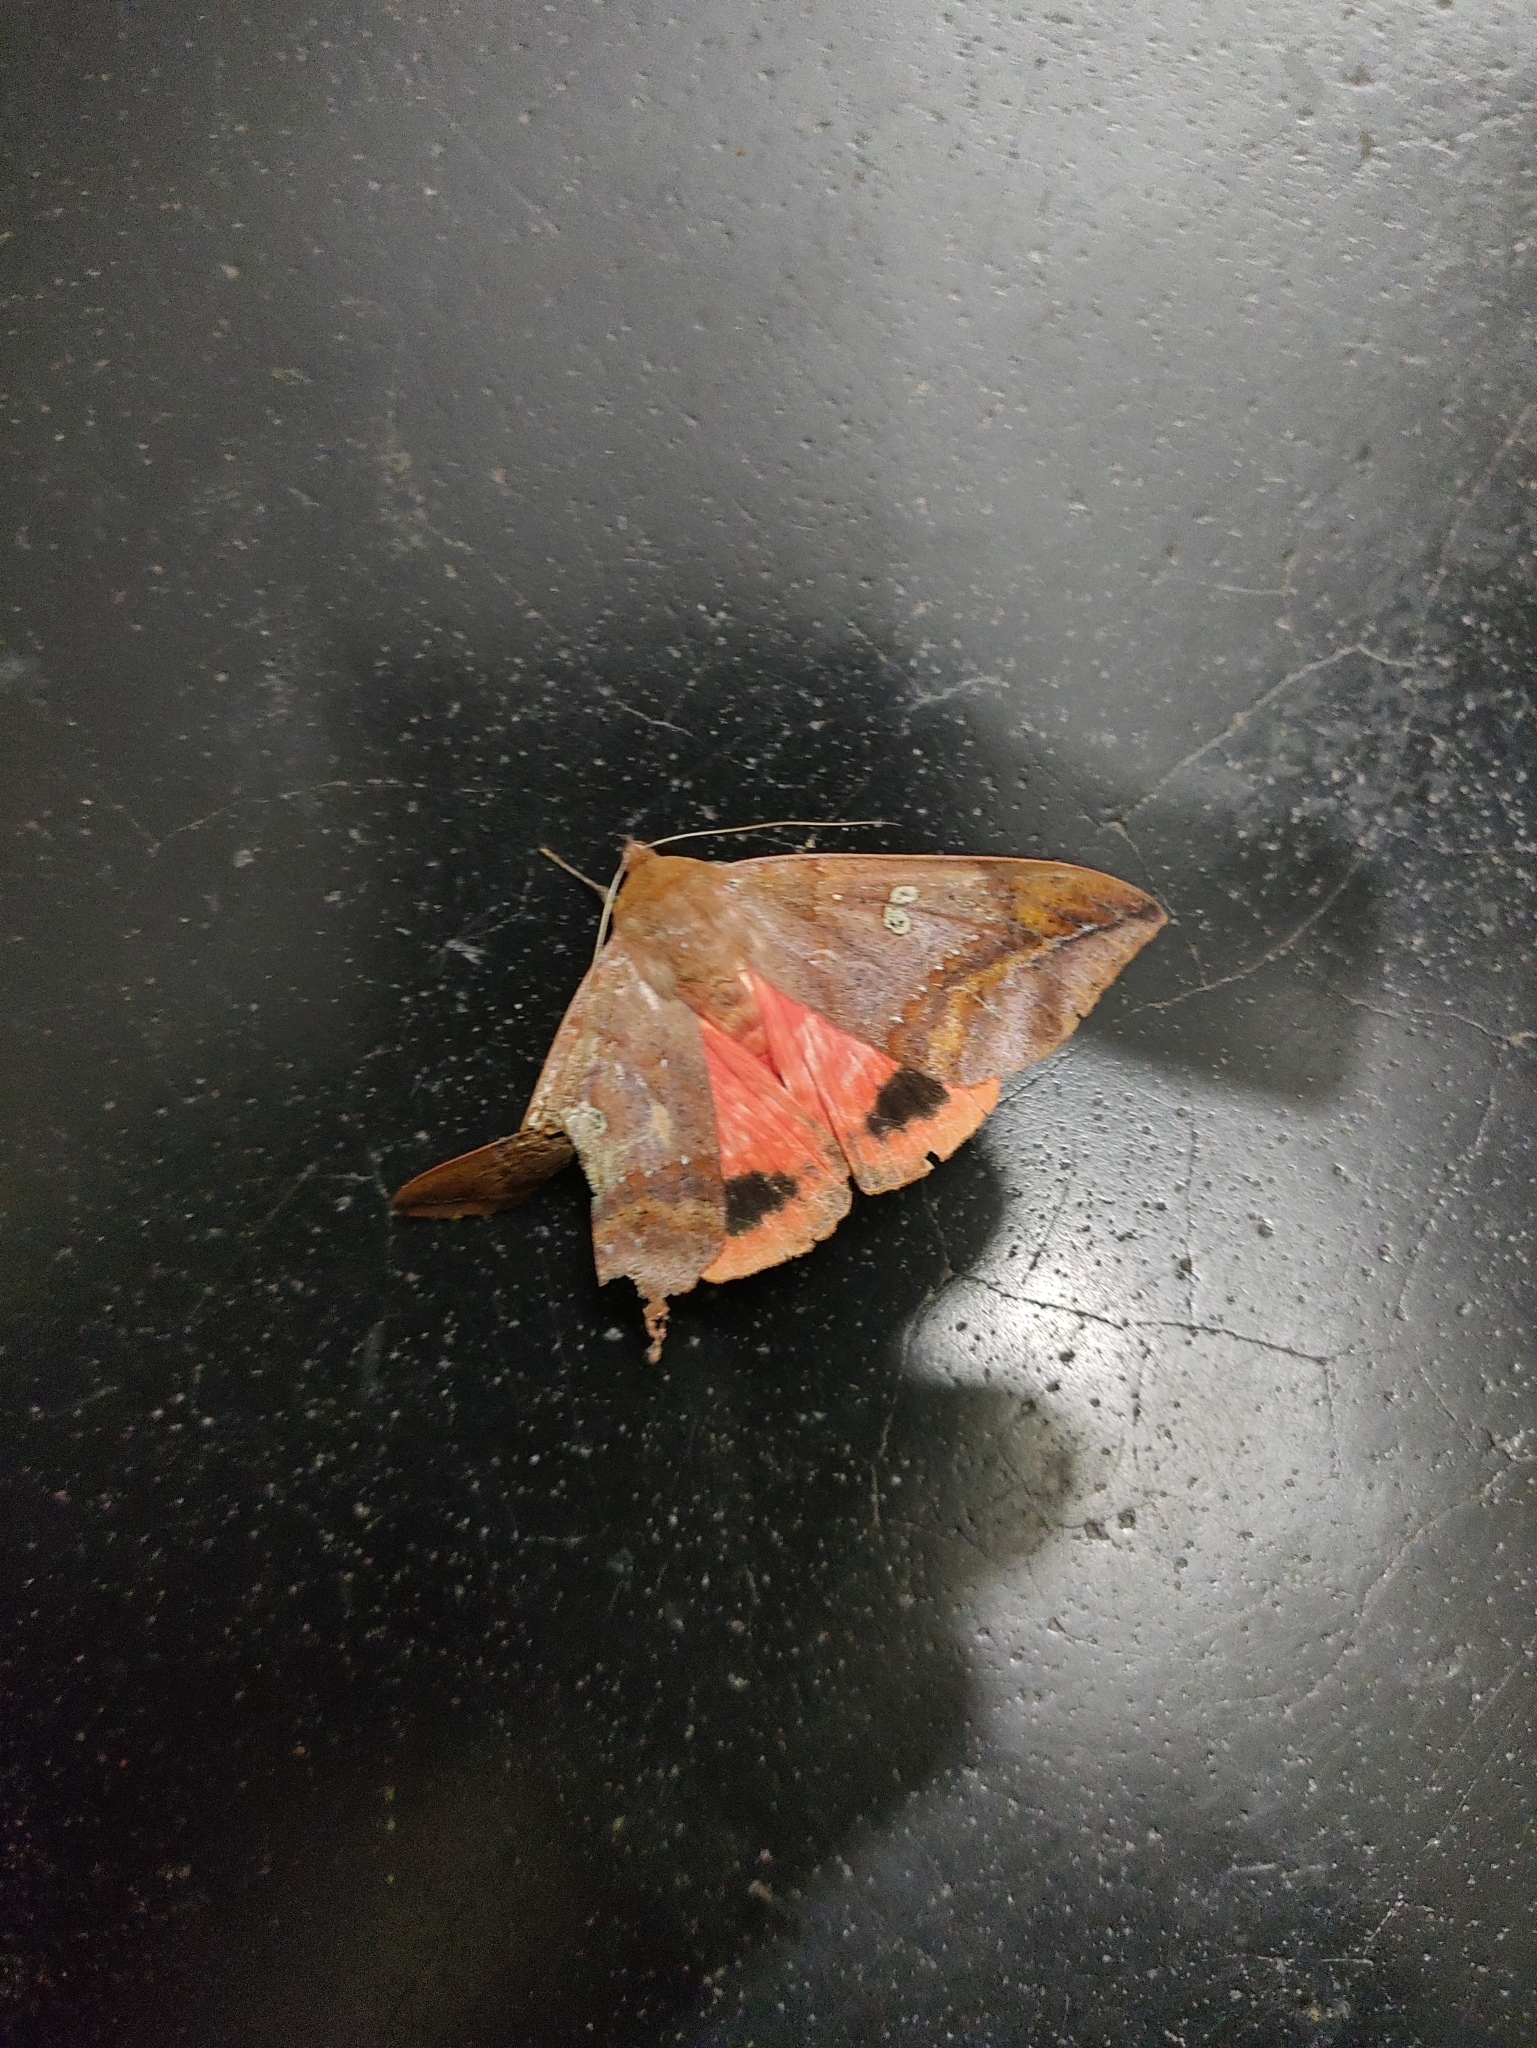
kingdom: Animalia
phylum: Arthropoda
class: Insecta
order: Lepidoptera
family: Erebidae
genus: Thyas
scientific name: Thyas honesta
